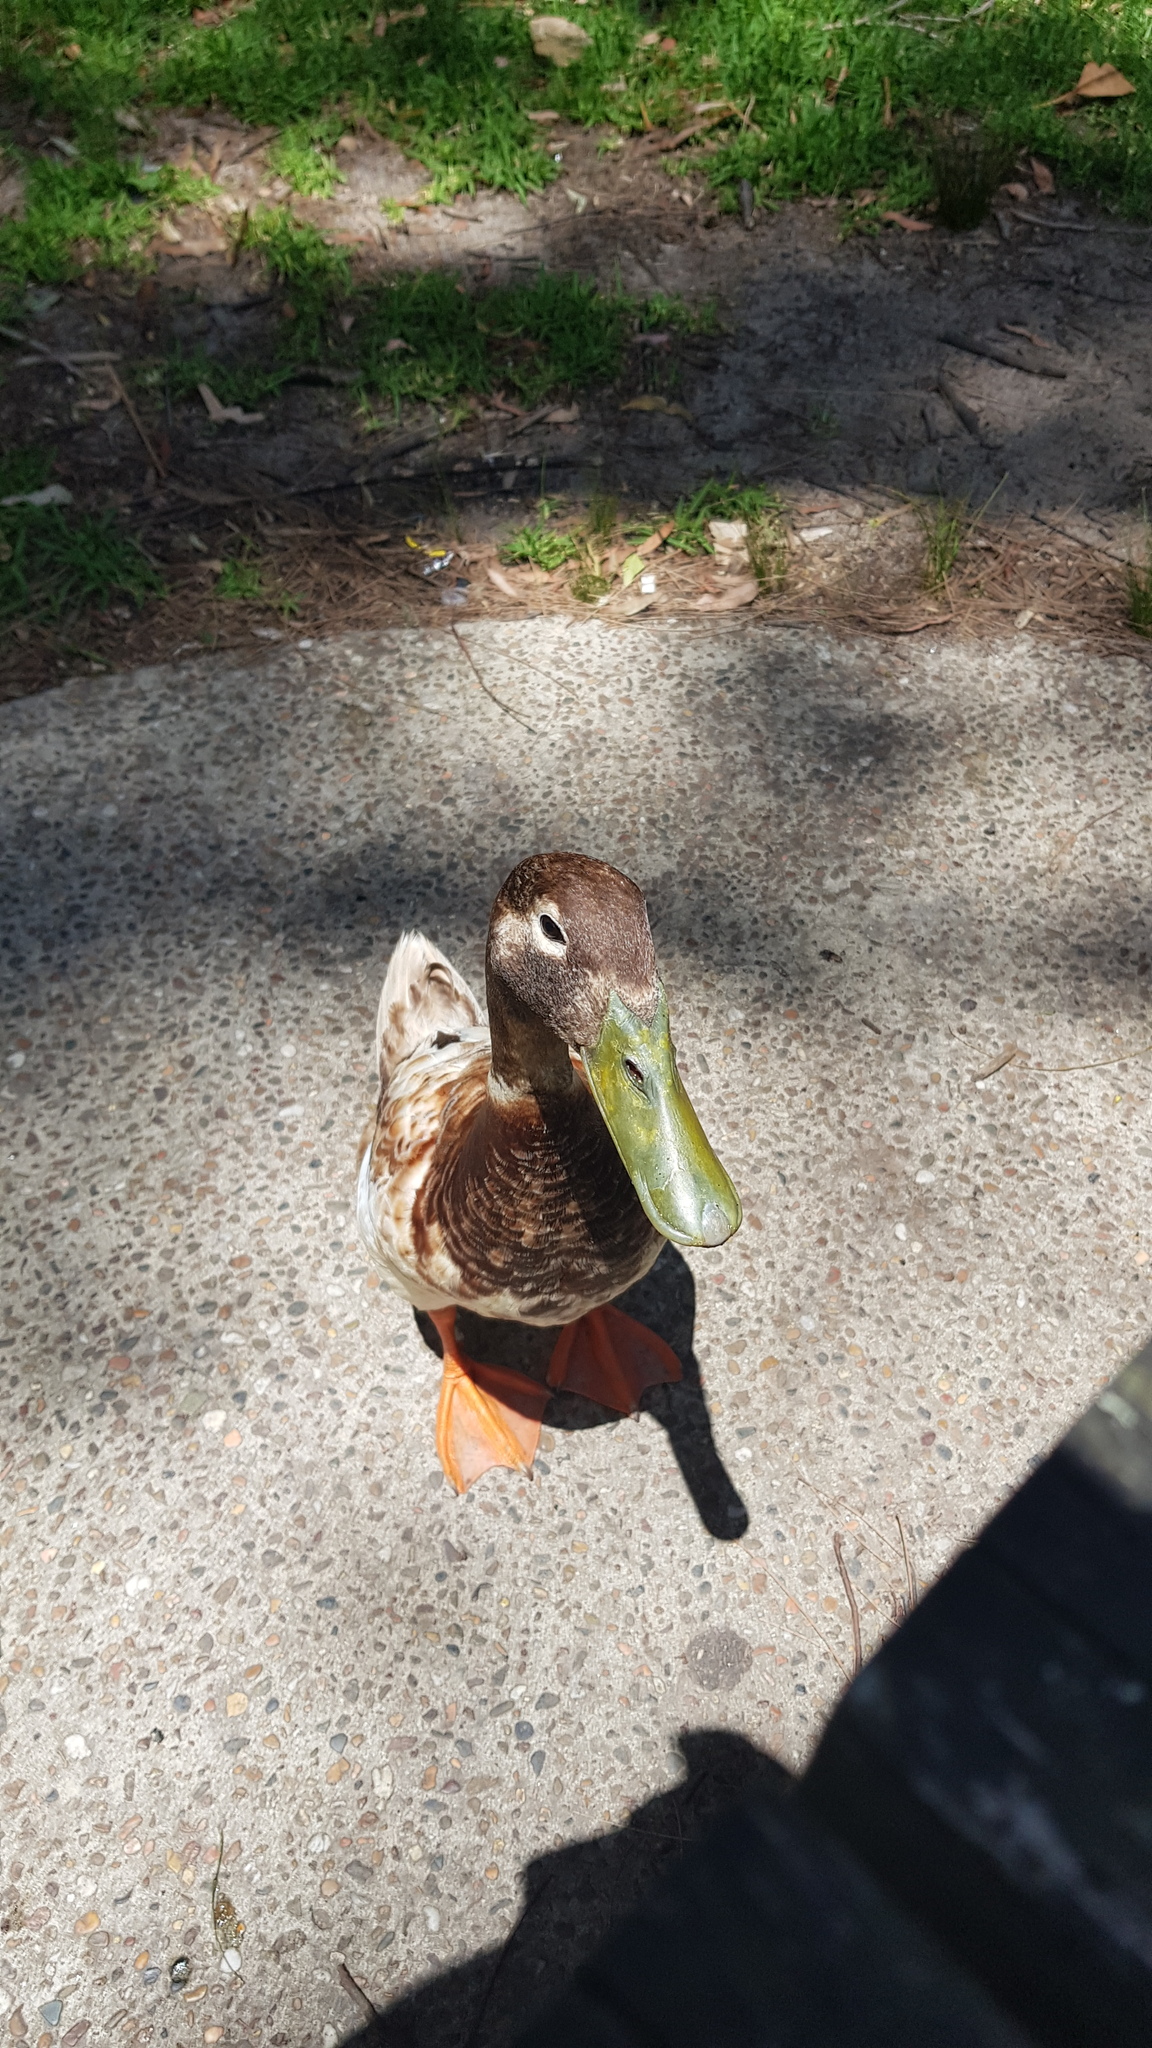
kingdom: Animalia
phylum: Chordata
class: Aves
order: Anseriformes
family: Anatidae
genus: Anas
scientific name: Anas platyrhynchos
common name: Mallard
